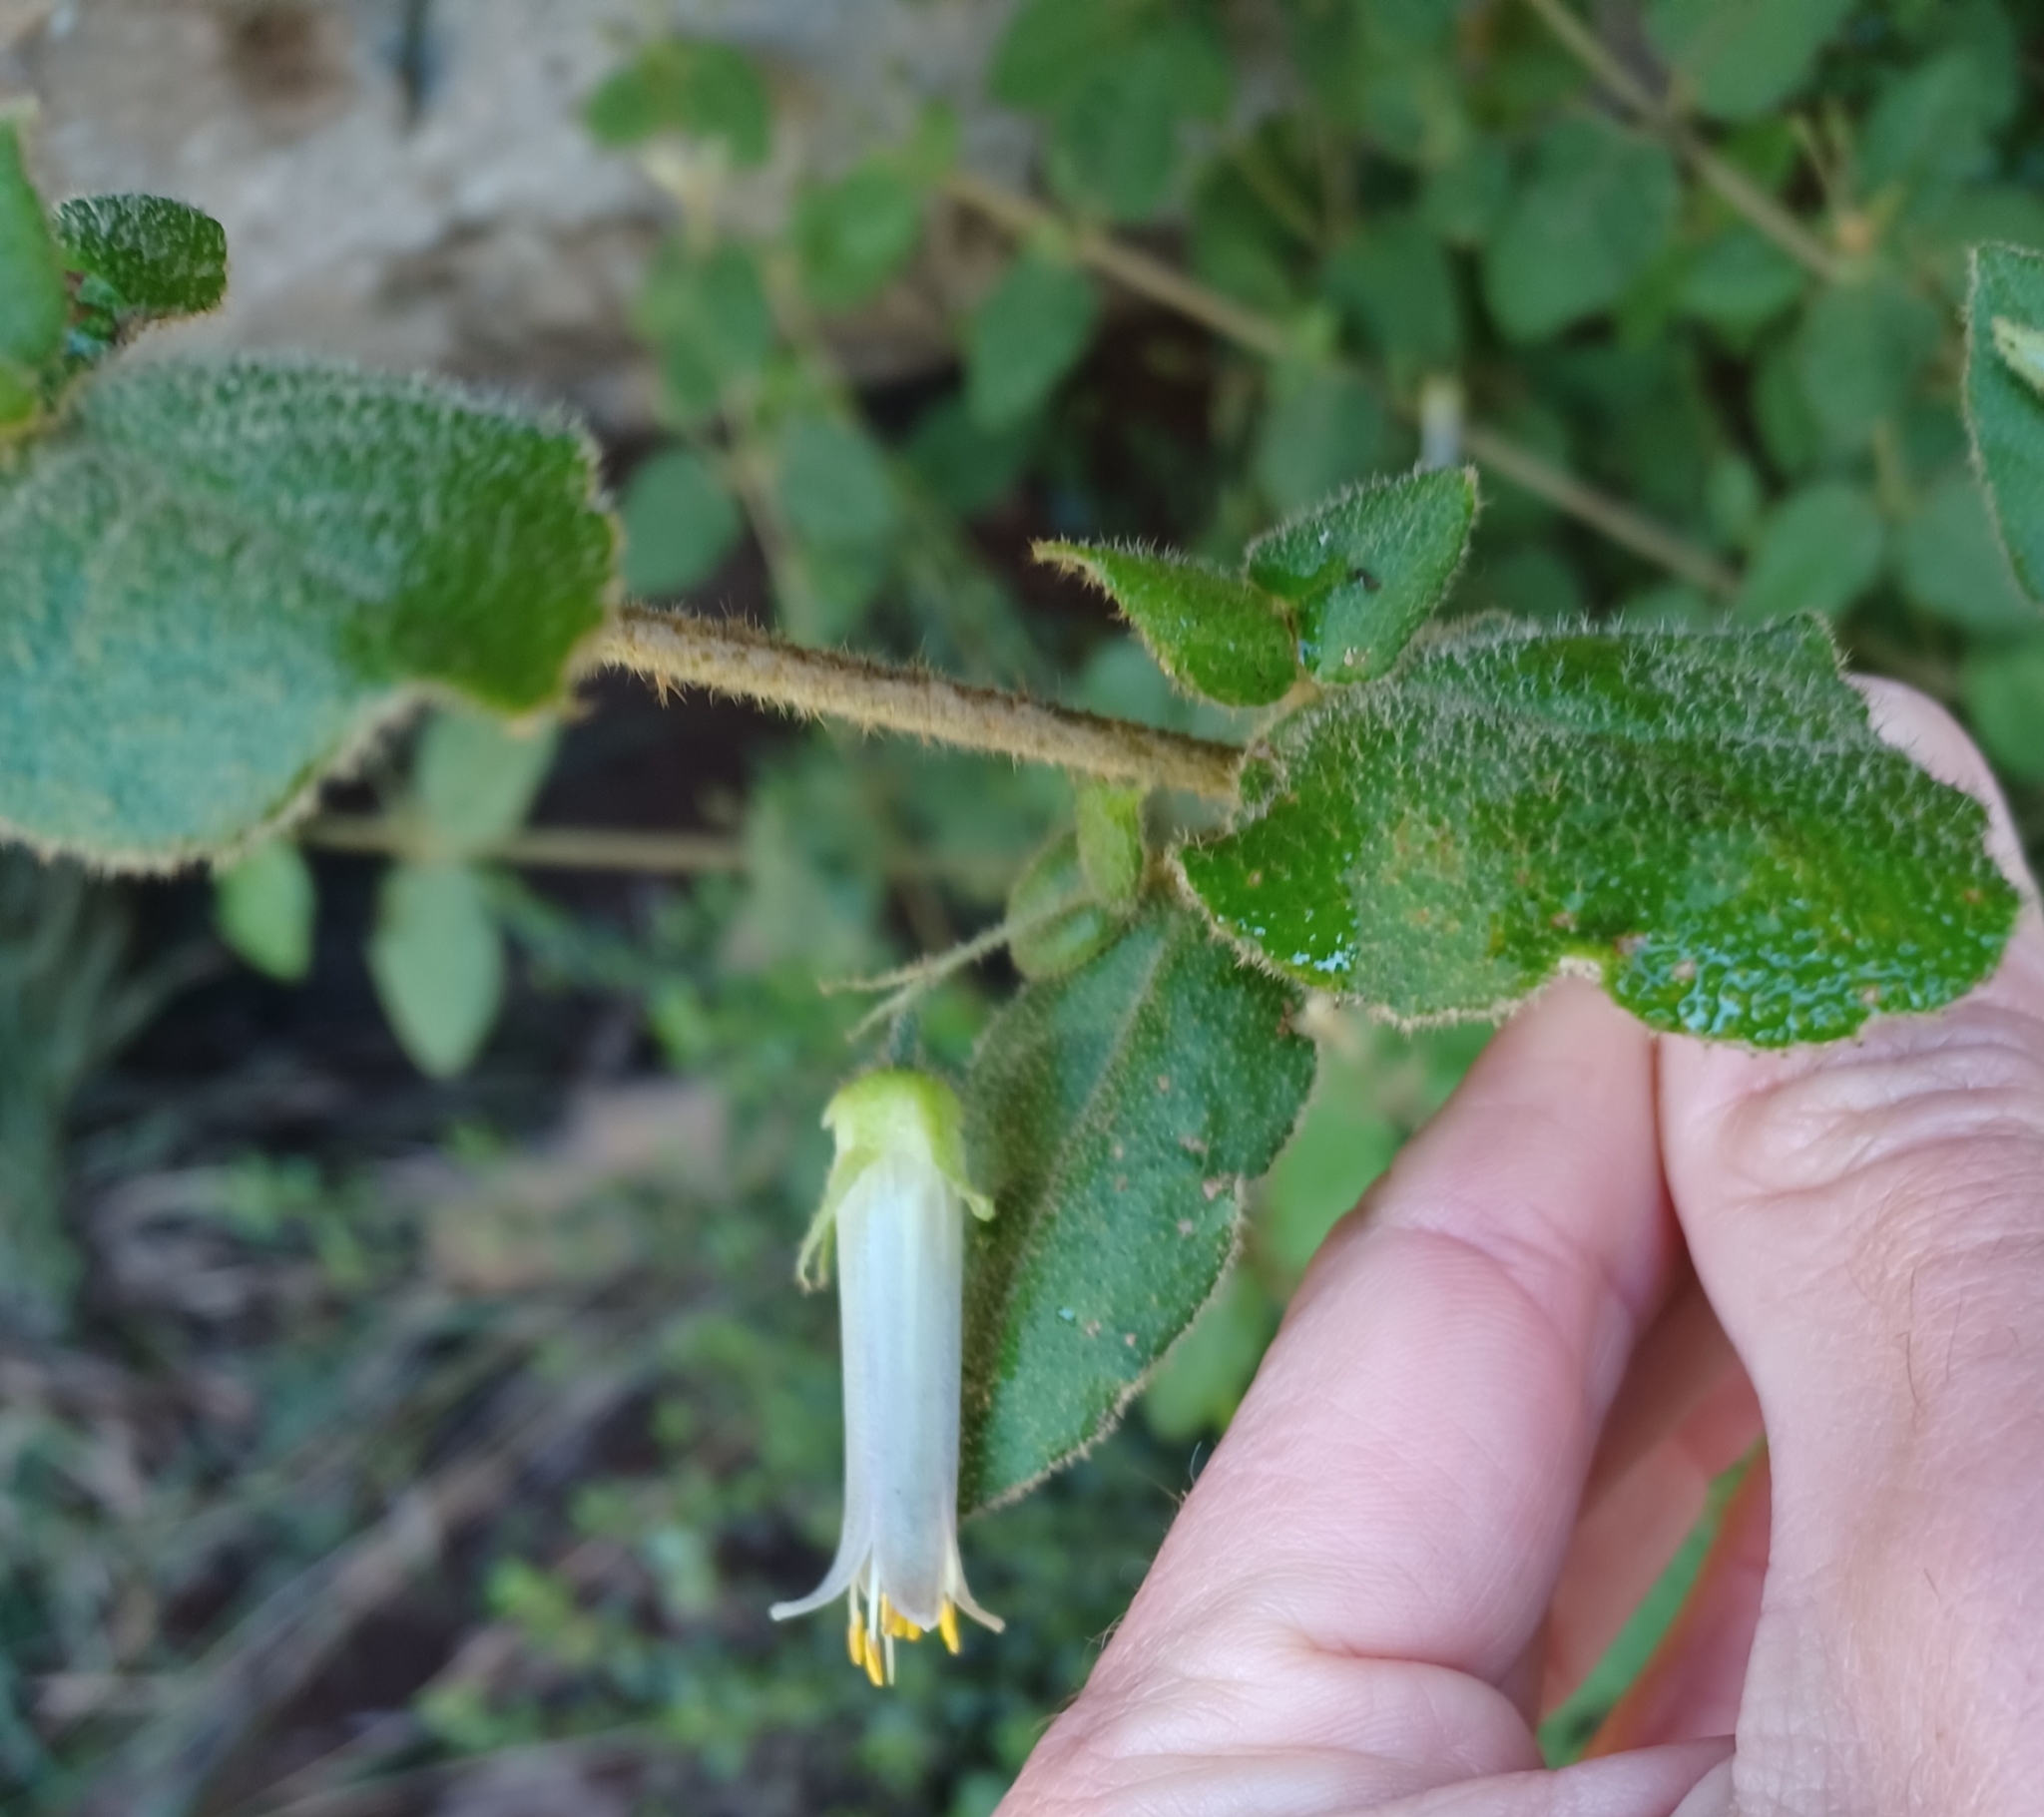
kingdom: Plantae
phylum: Tracheophyta
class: Magnoliopsida
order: Sapindales
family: Rutaceae
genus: Correa
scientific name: Correa aemula
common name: Hairy correa
